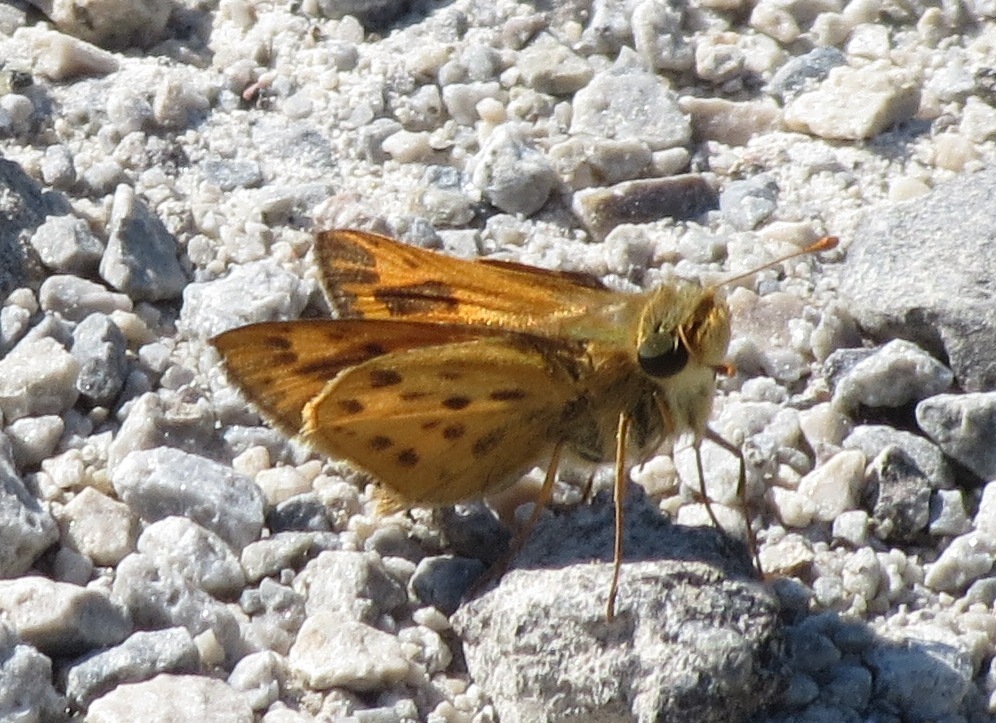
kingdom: Animalia
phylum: Arthropoda
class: Insecta
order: Lepidoptera
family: Hesperiidae
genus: Hylephila
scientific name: Hylephila phyleus
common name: Fiery skipper
